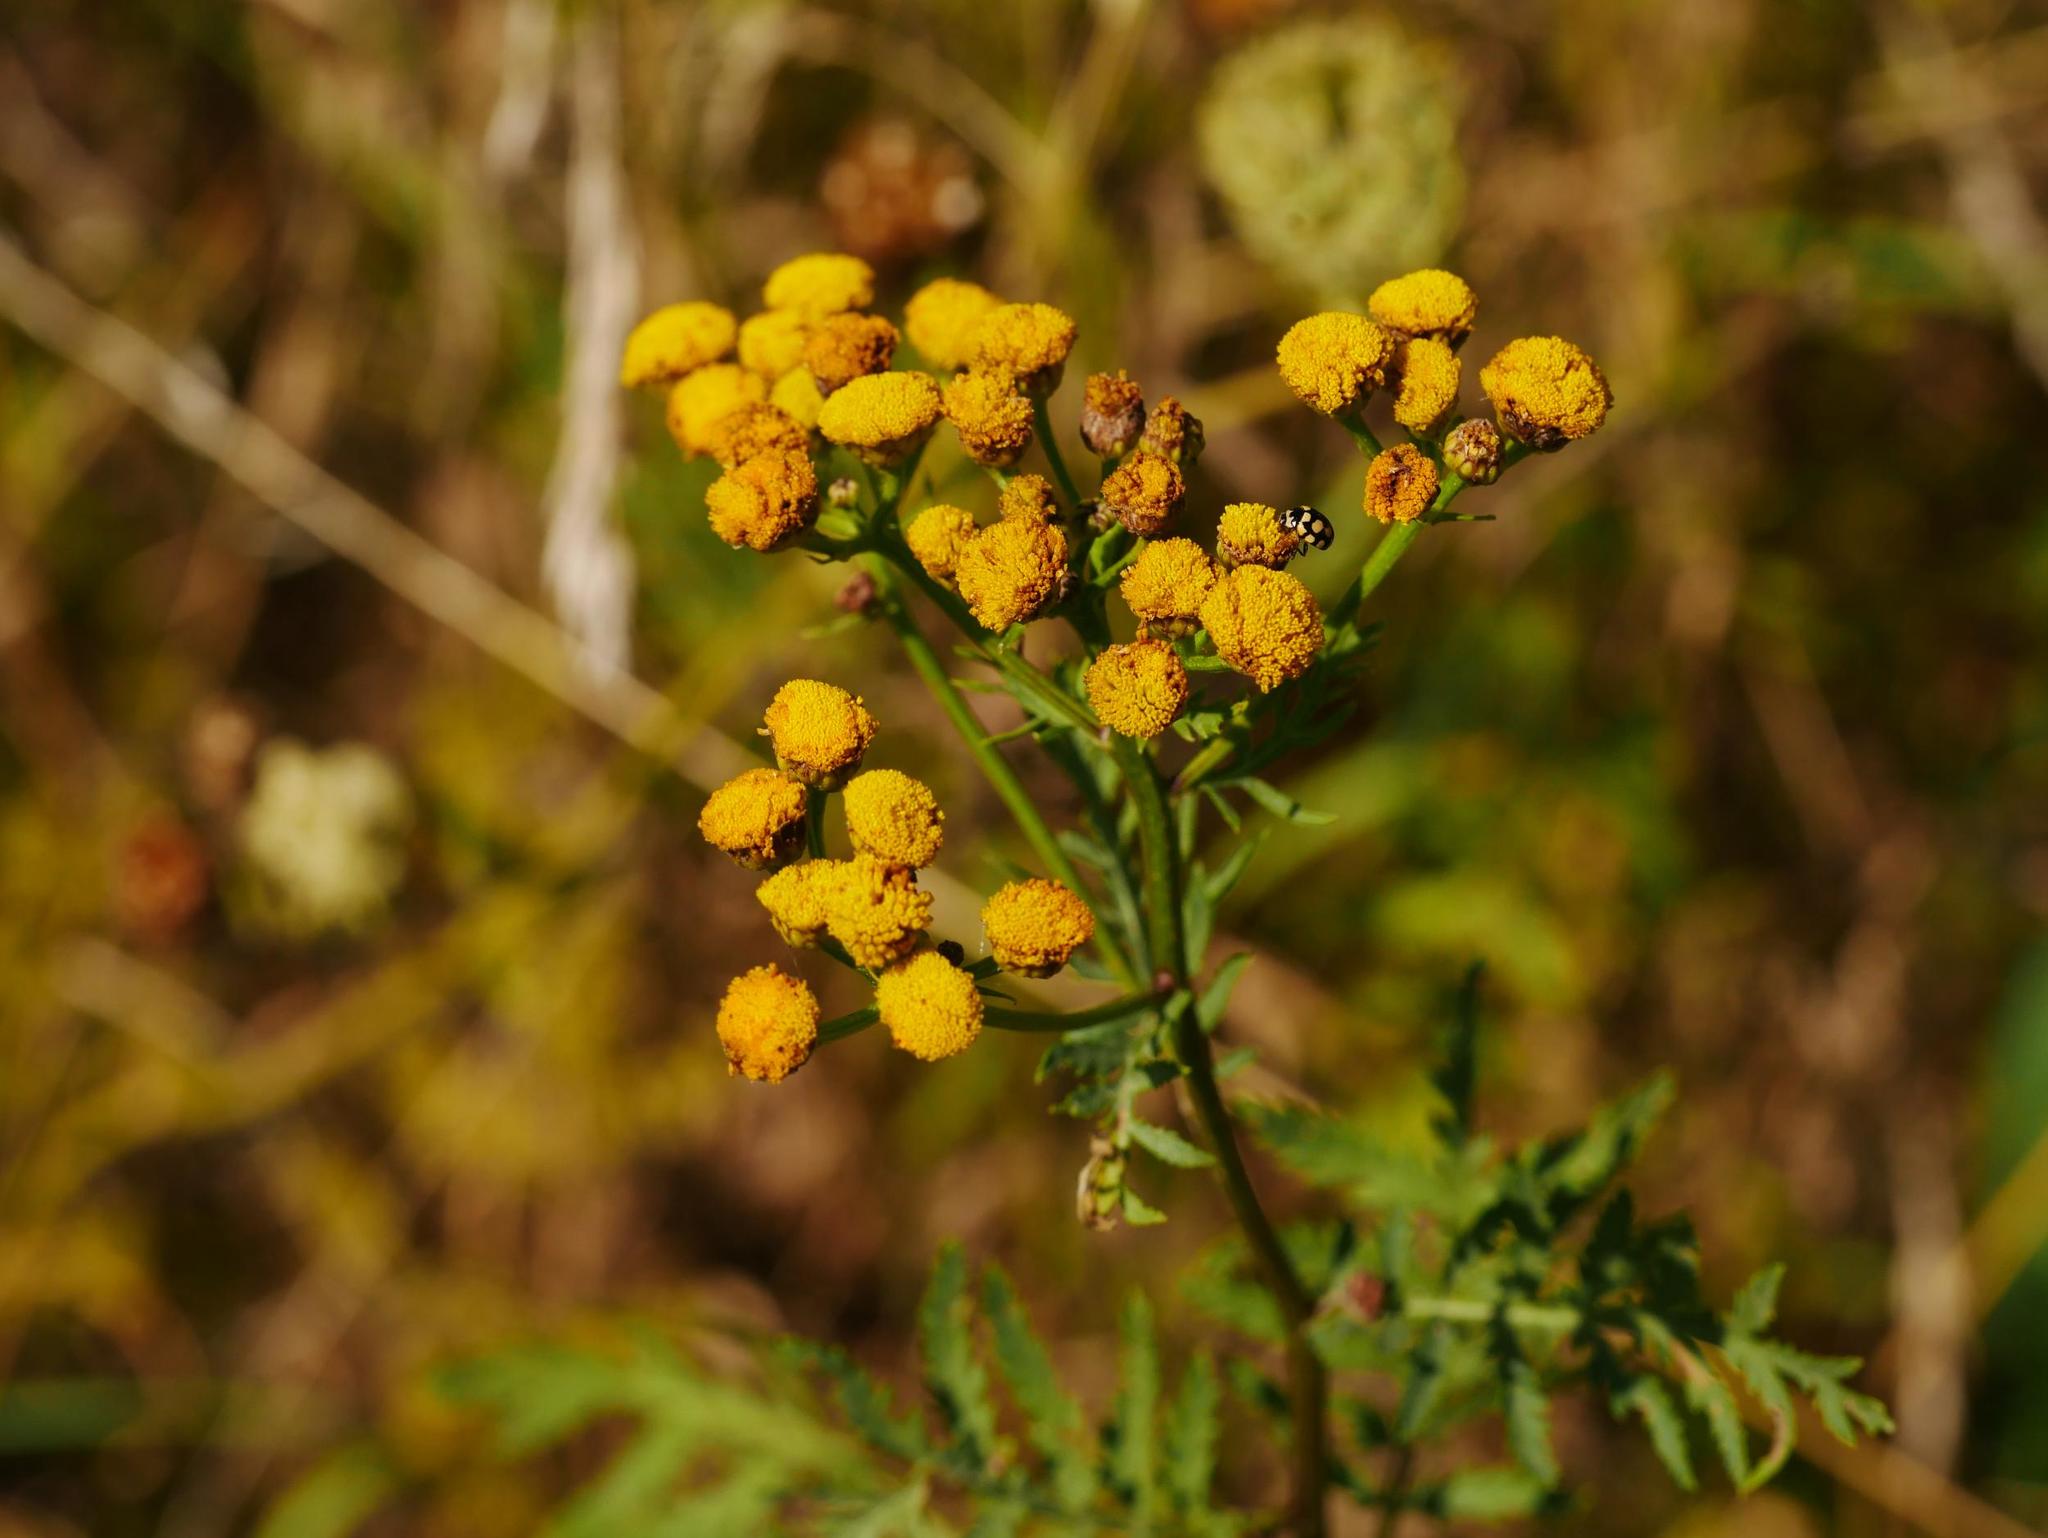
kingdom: Plantae
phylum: Tracheophyta
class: Magnoliopsida
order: Asterales
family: Asteraceae
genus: Tanacetum
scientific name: Tanacetum vulgare
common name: Common tansy
